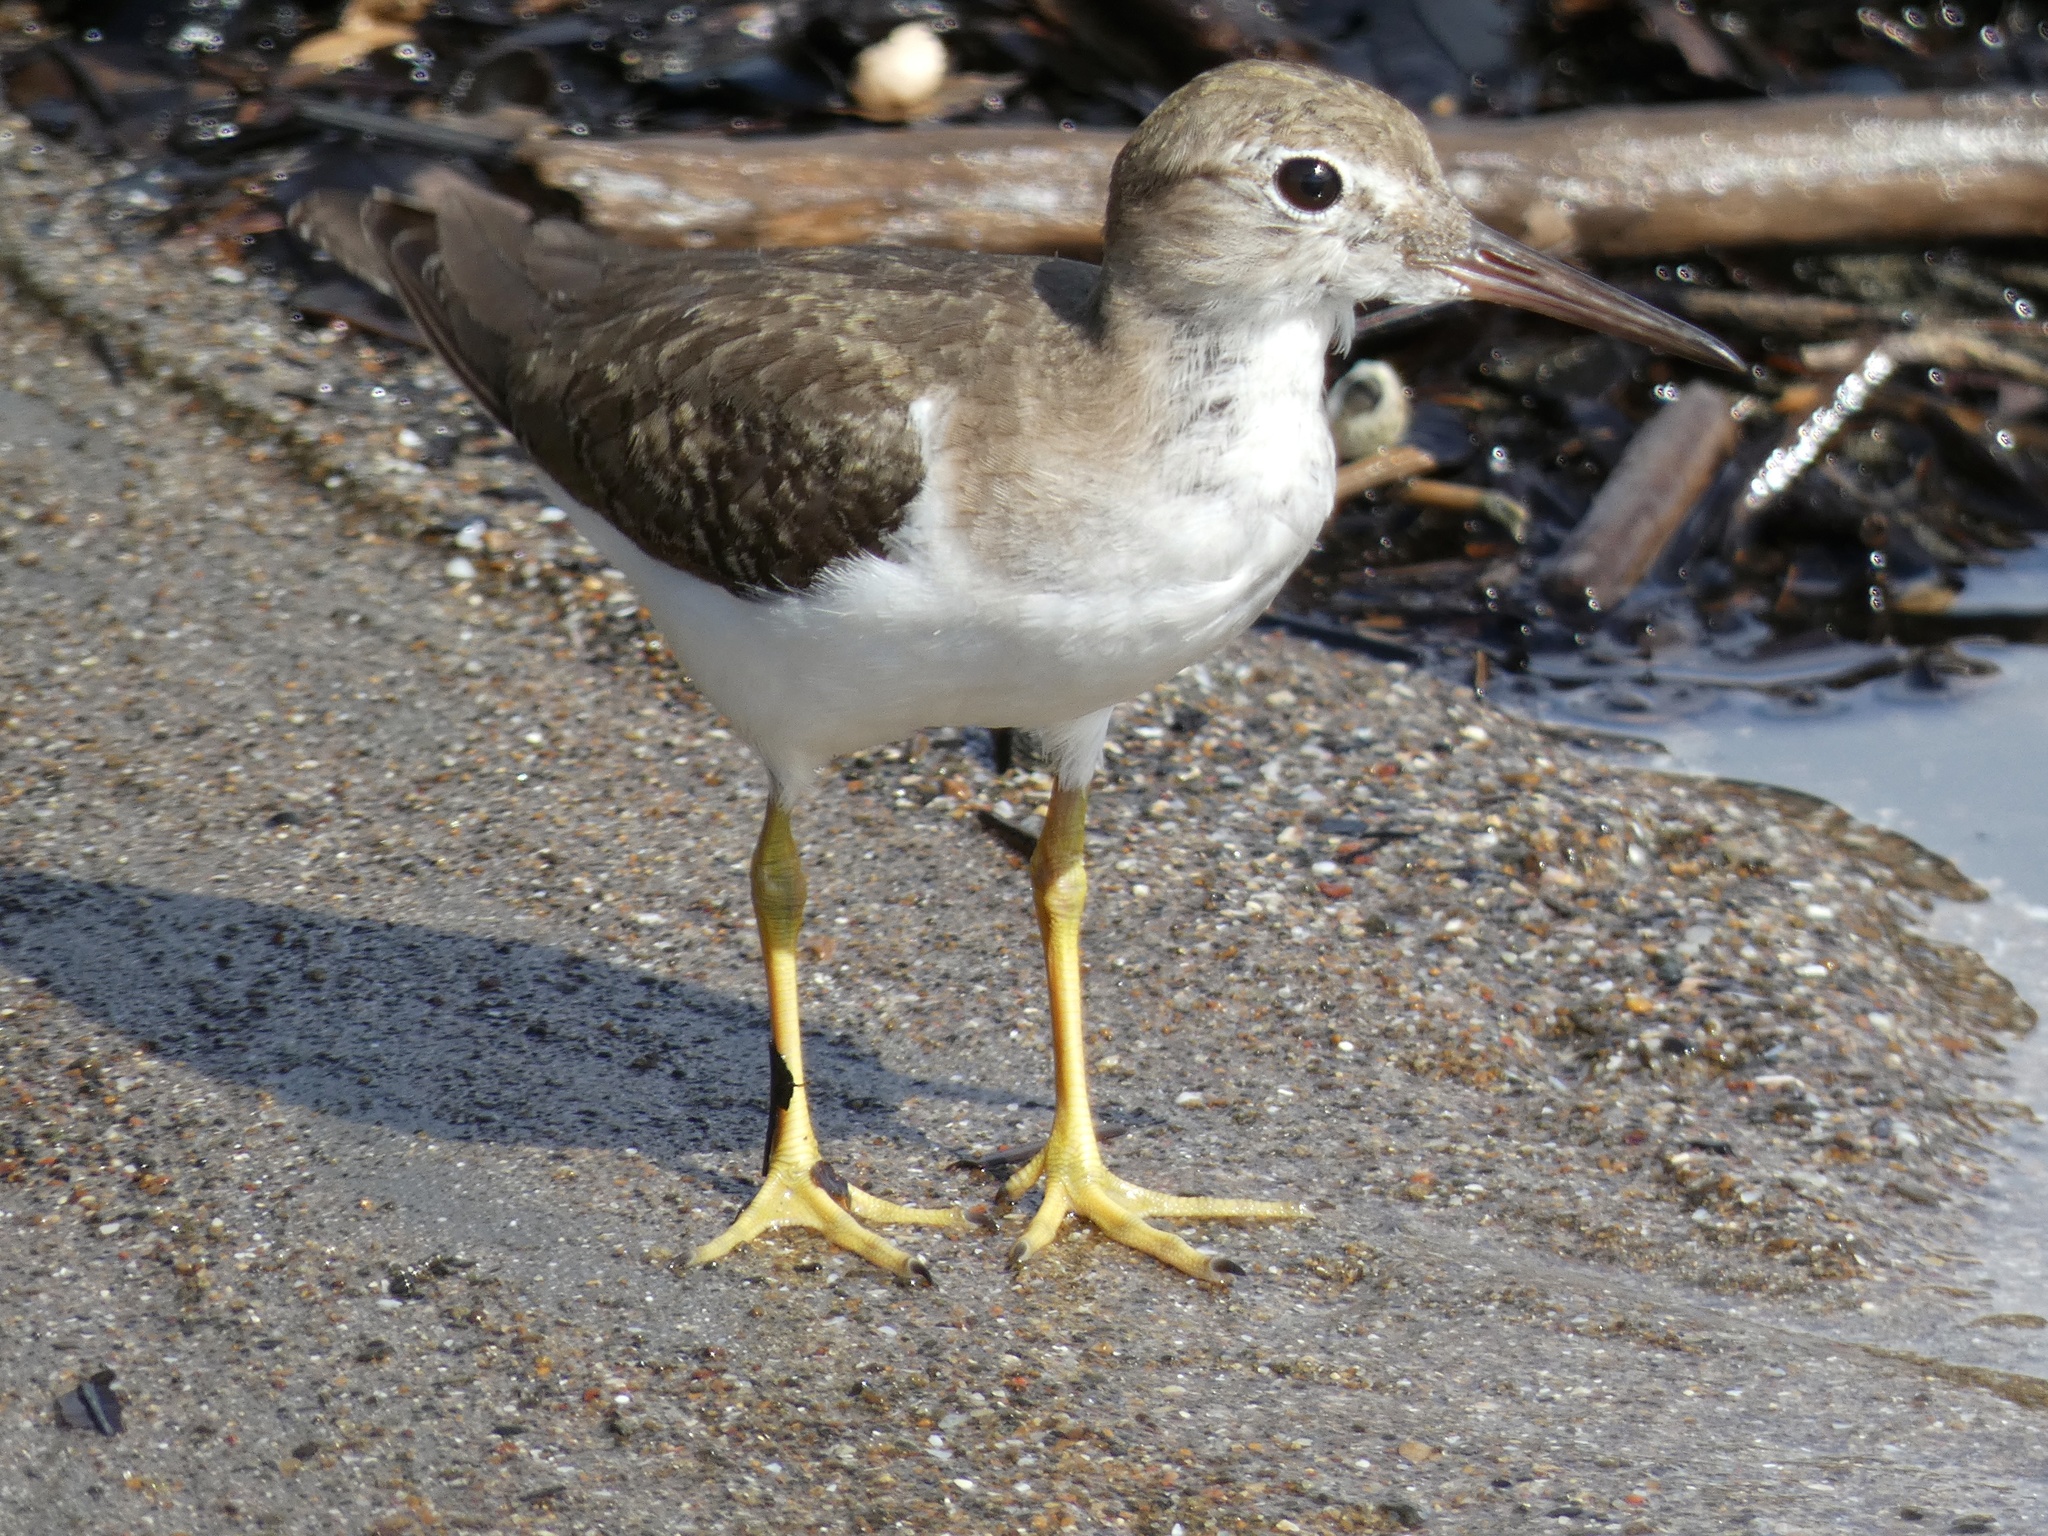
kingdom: Animalia
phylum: Chordata
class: Aves
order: Charadriiformes
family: Scolopacidae
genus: Actitis
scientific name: Actitis macularius
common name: Spotted sandpiper
